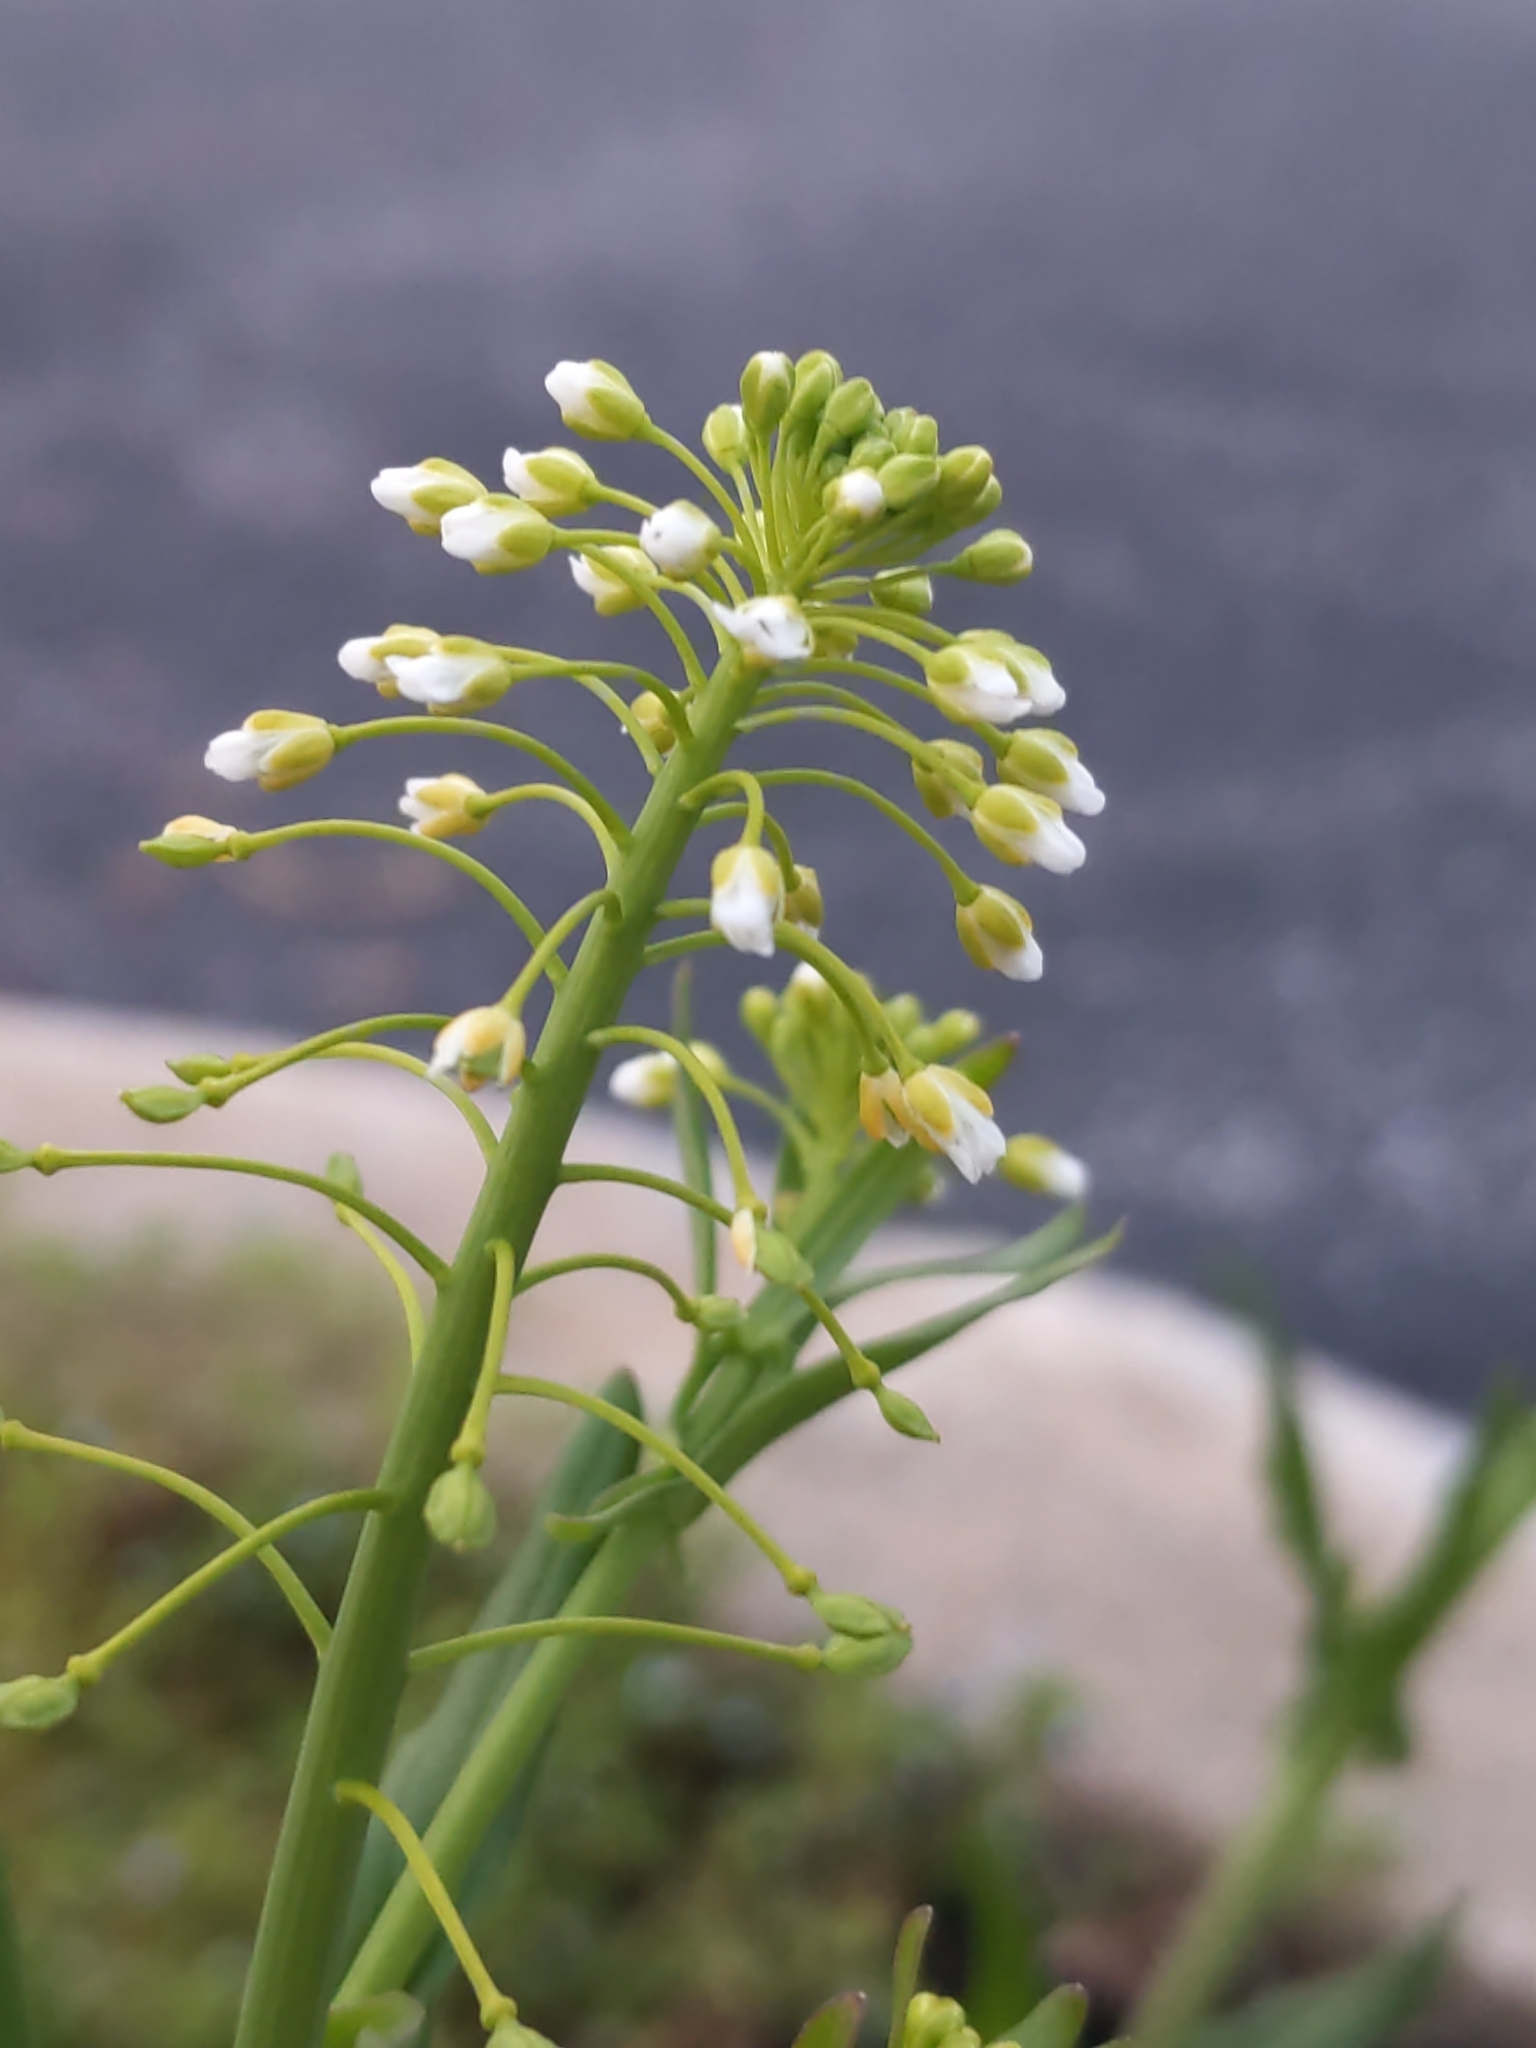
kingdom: Plantae
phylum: Tracheophyta
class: Magnoliopsida
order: Brassicales
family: Brassicaceae
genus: Mummenhoffia
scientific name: Mummenhoffia alliacea
